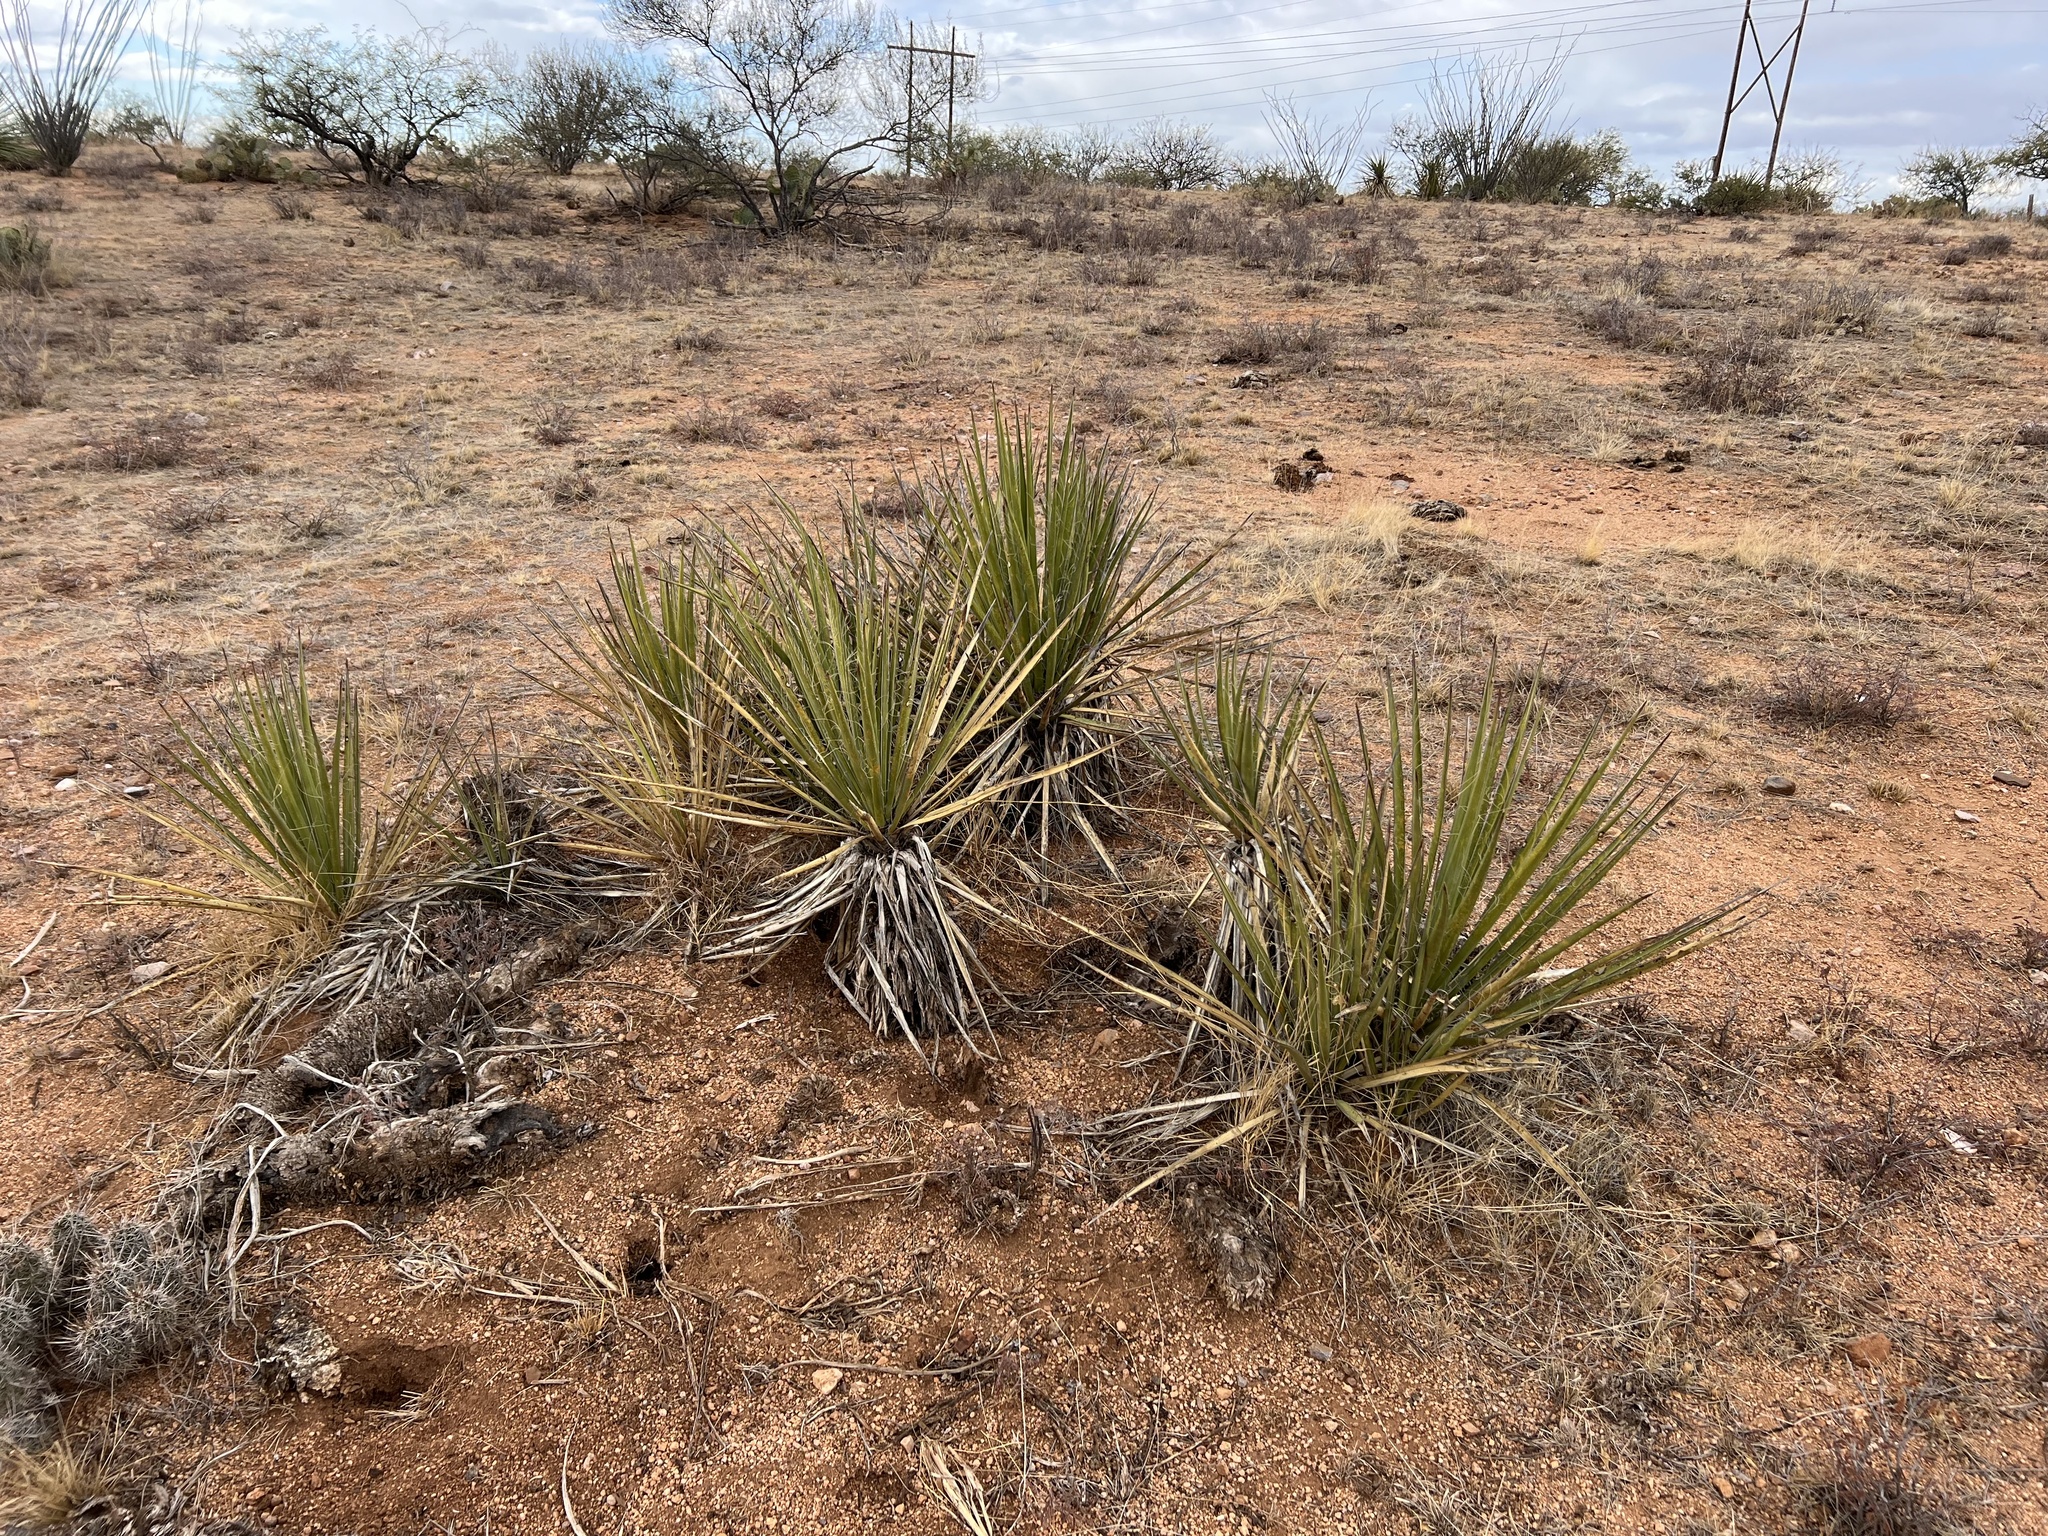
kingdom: Plantae
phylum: Tracheophyta
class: Liliopsida
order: Asparagales
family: Asparagaceae
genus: Yucca
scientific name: Yucca baccata
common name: Banana yucca
